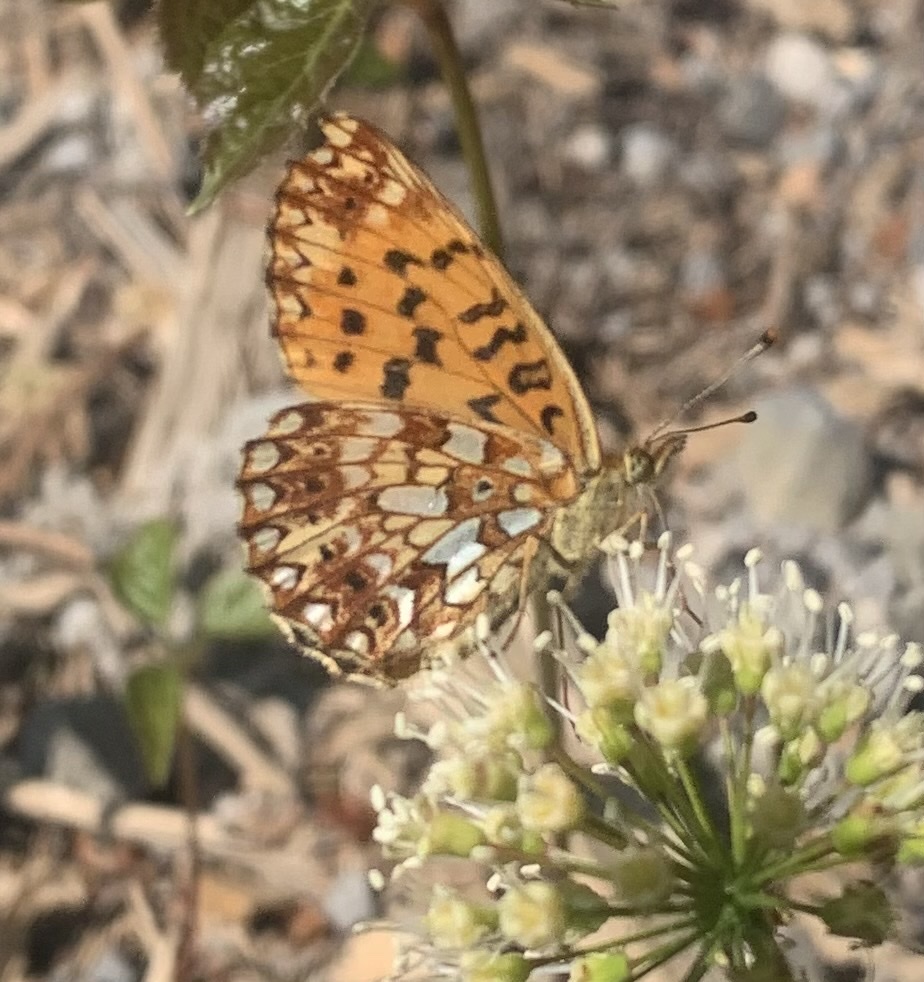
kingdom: Animalia
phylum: Arthropoda
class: Insecta
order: Lepidoptera
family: Nymphalidae
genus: Boloria
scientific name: Boloria
